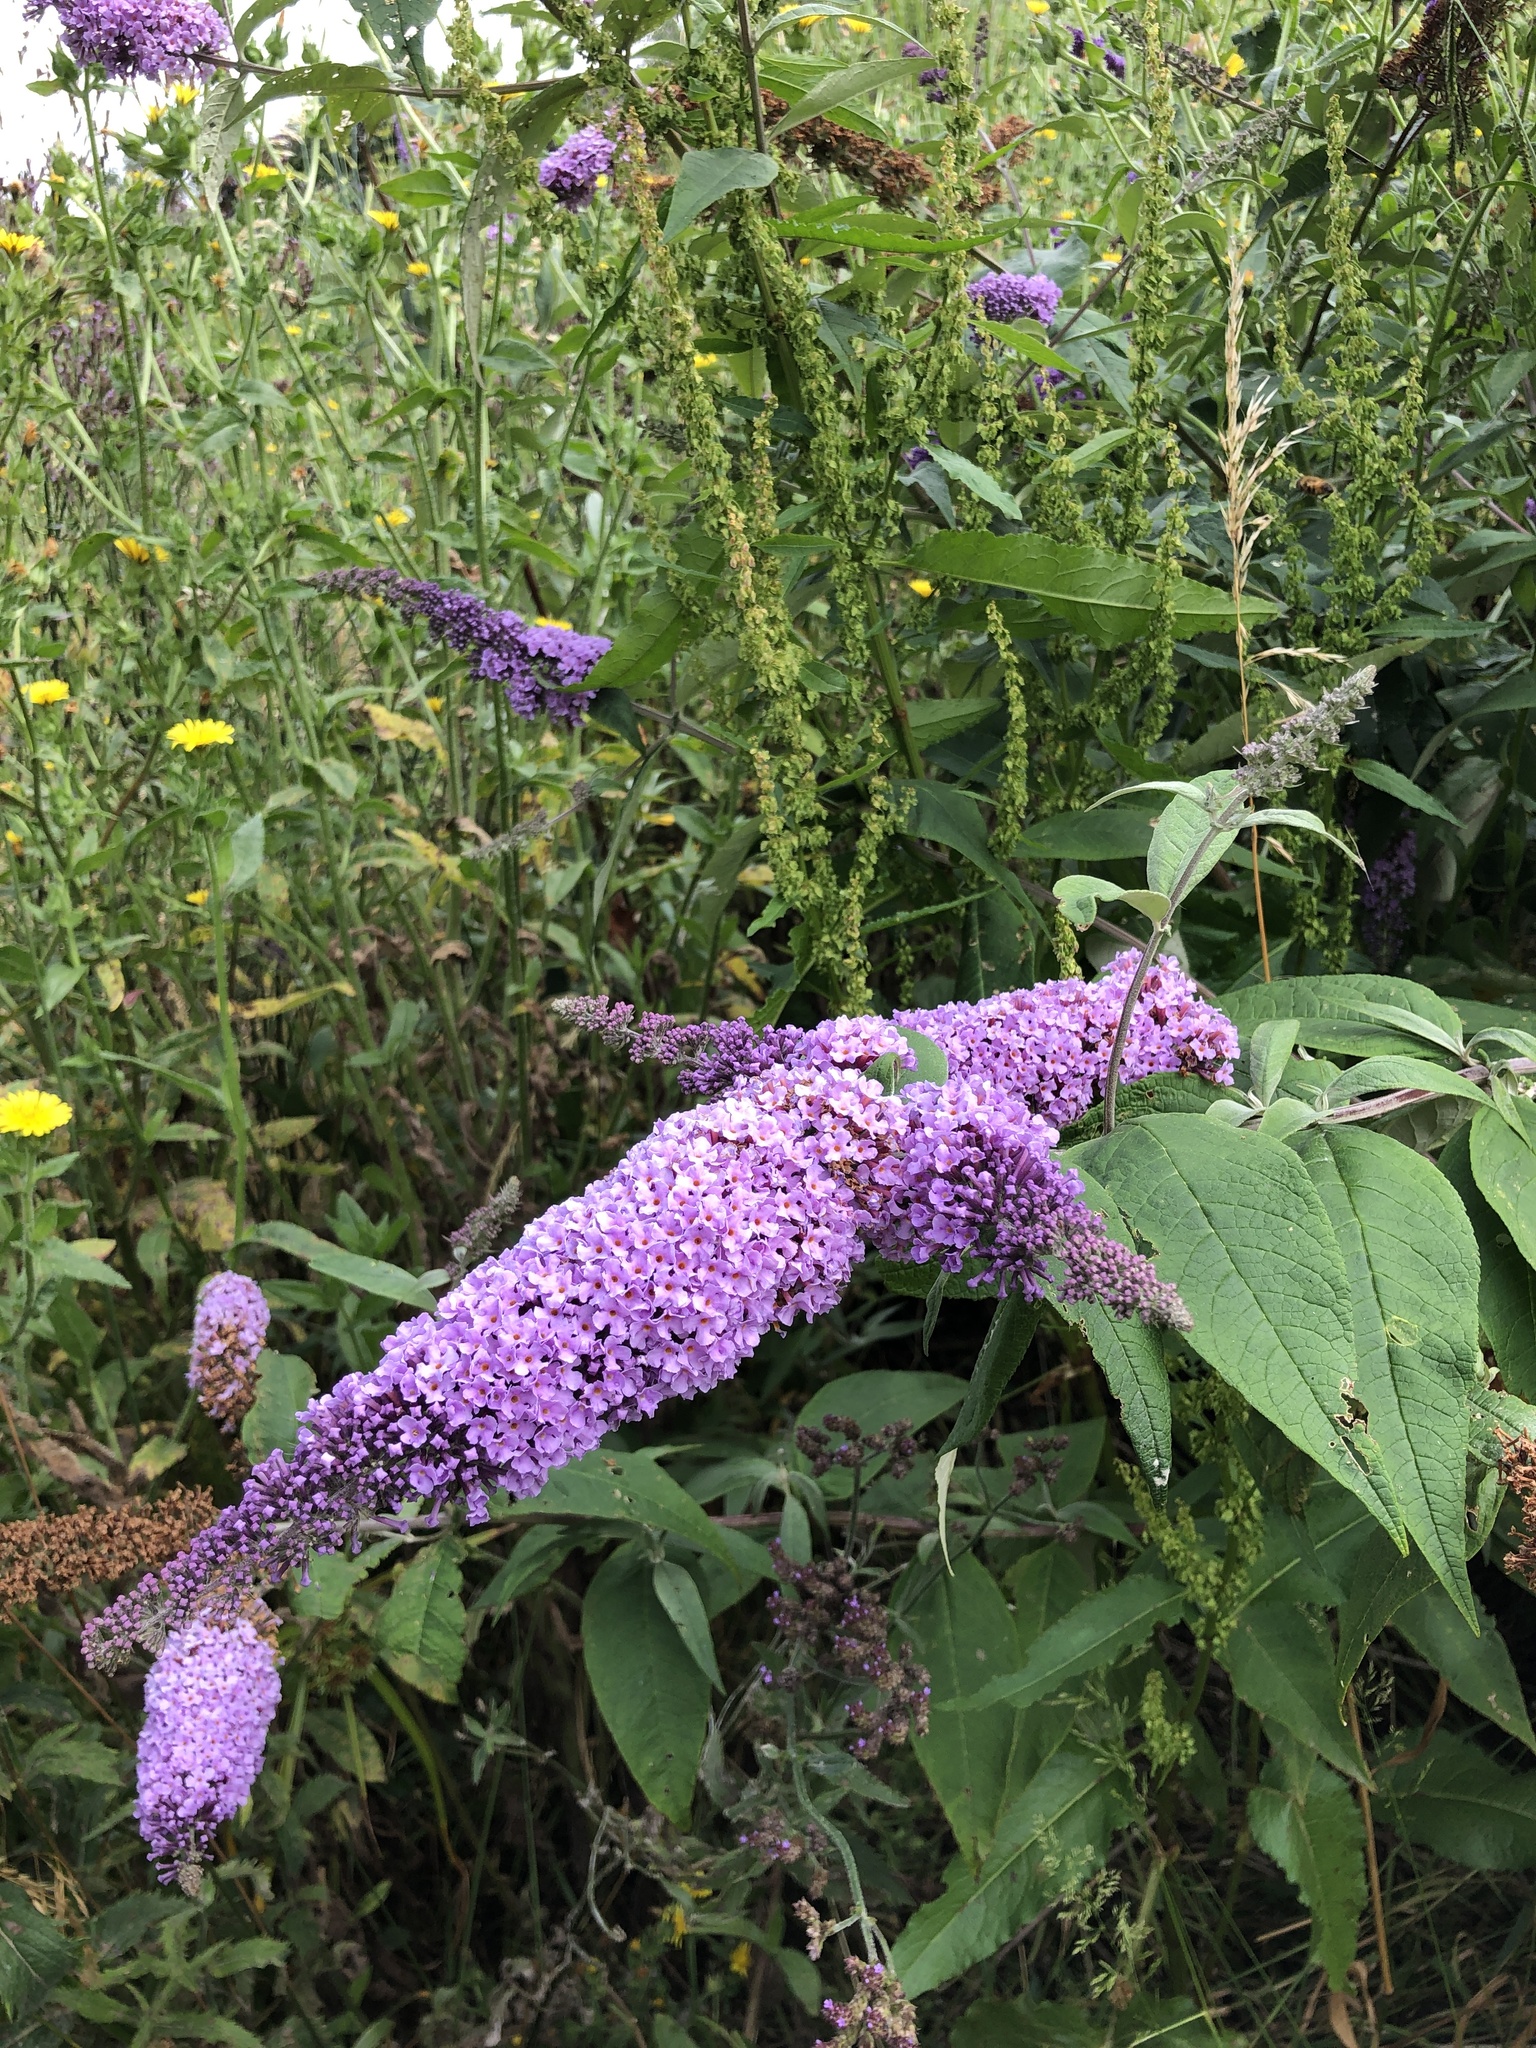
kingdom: Plantae
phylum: Tracheophyta
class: Magnoliopsida
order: Lamiales
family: Scrophulariaceae
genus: Buddleja
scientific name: Buddleja davidii
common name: Butterfly-bush
